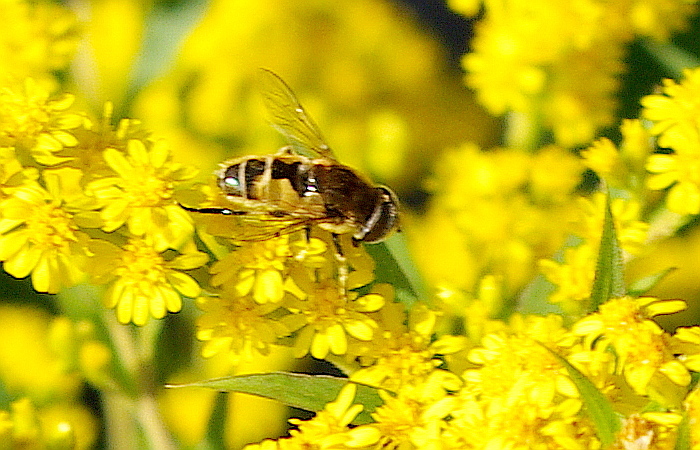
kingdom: Animalia
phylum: Arthropoda
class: Insecta
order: Diptera
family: Syrphidae
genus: Eoseristalis
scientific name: Eoseristalis
